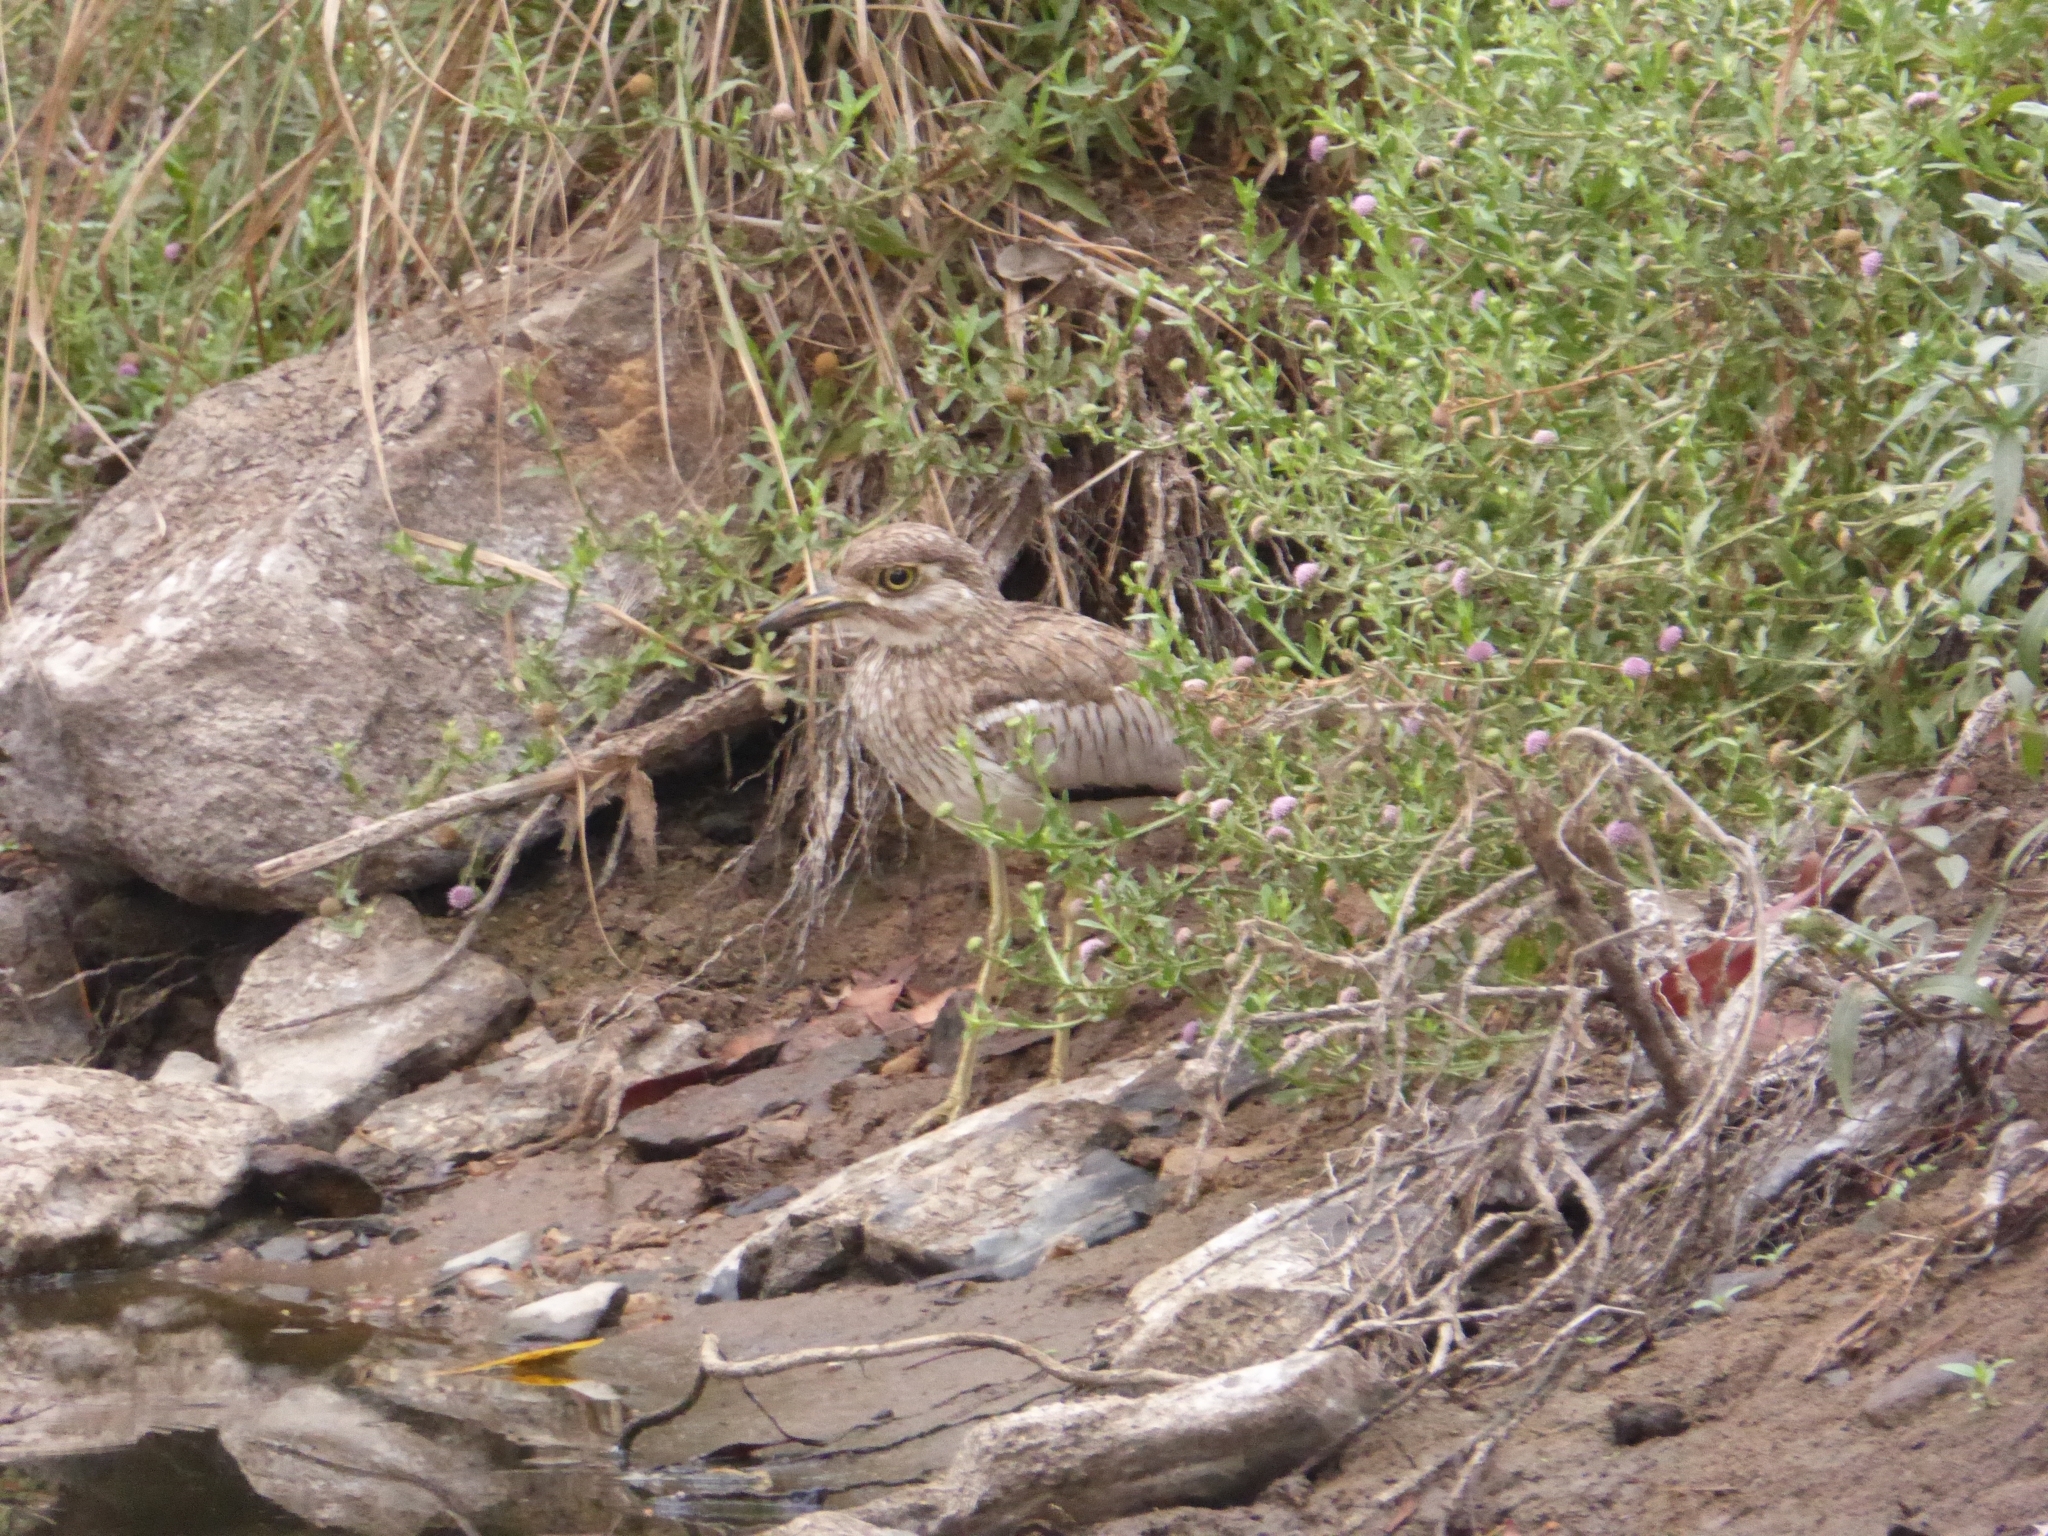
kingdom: Animalia
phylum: Chordata
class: Aves
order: Charadriiformes
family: Burhinidae
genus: Burhinus
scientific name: Burhinus vermiculatus
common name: Water thick-knee
